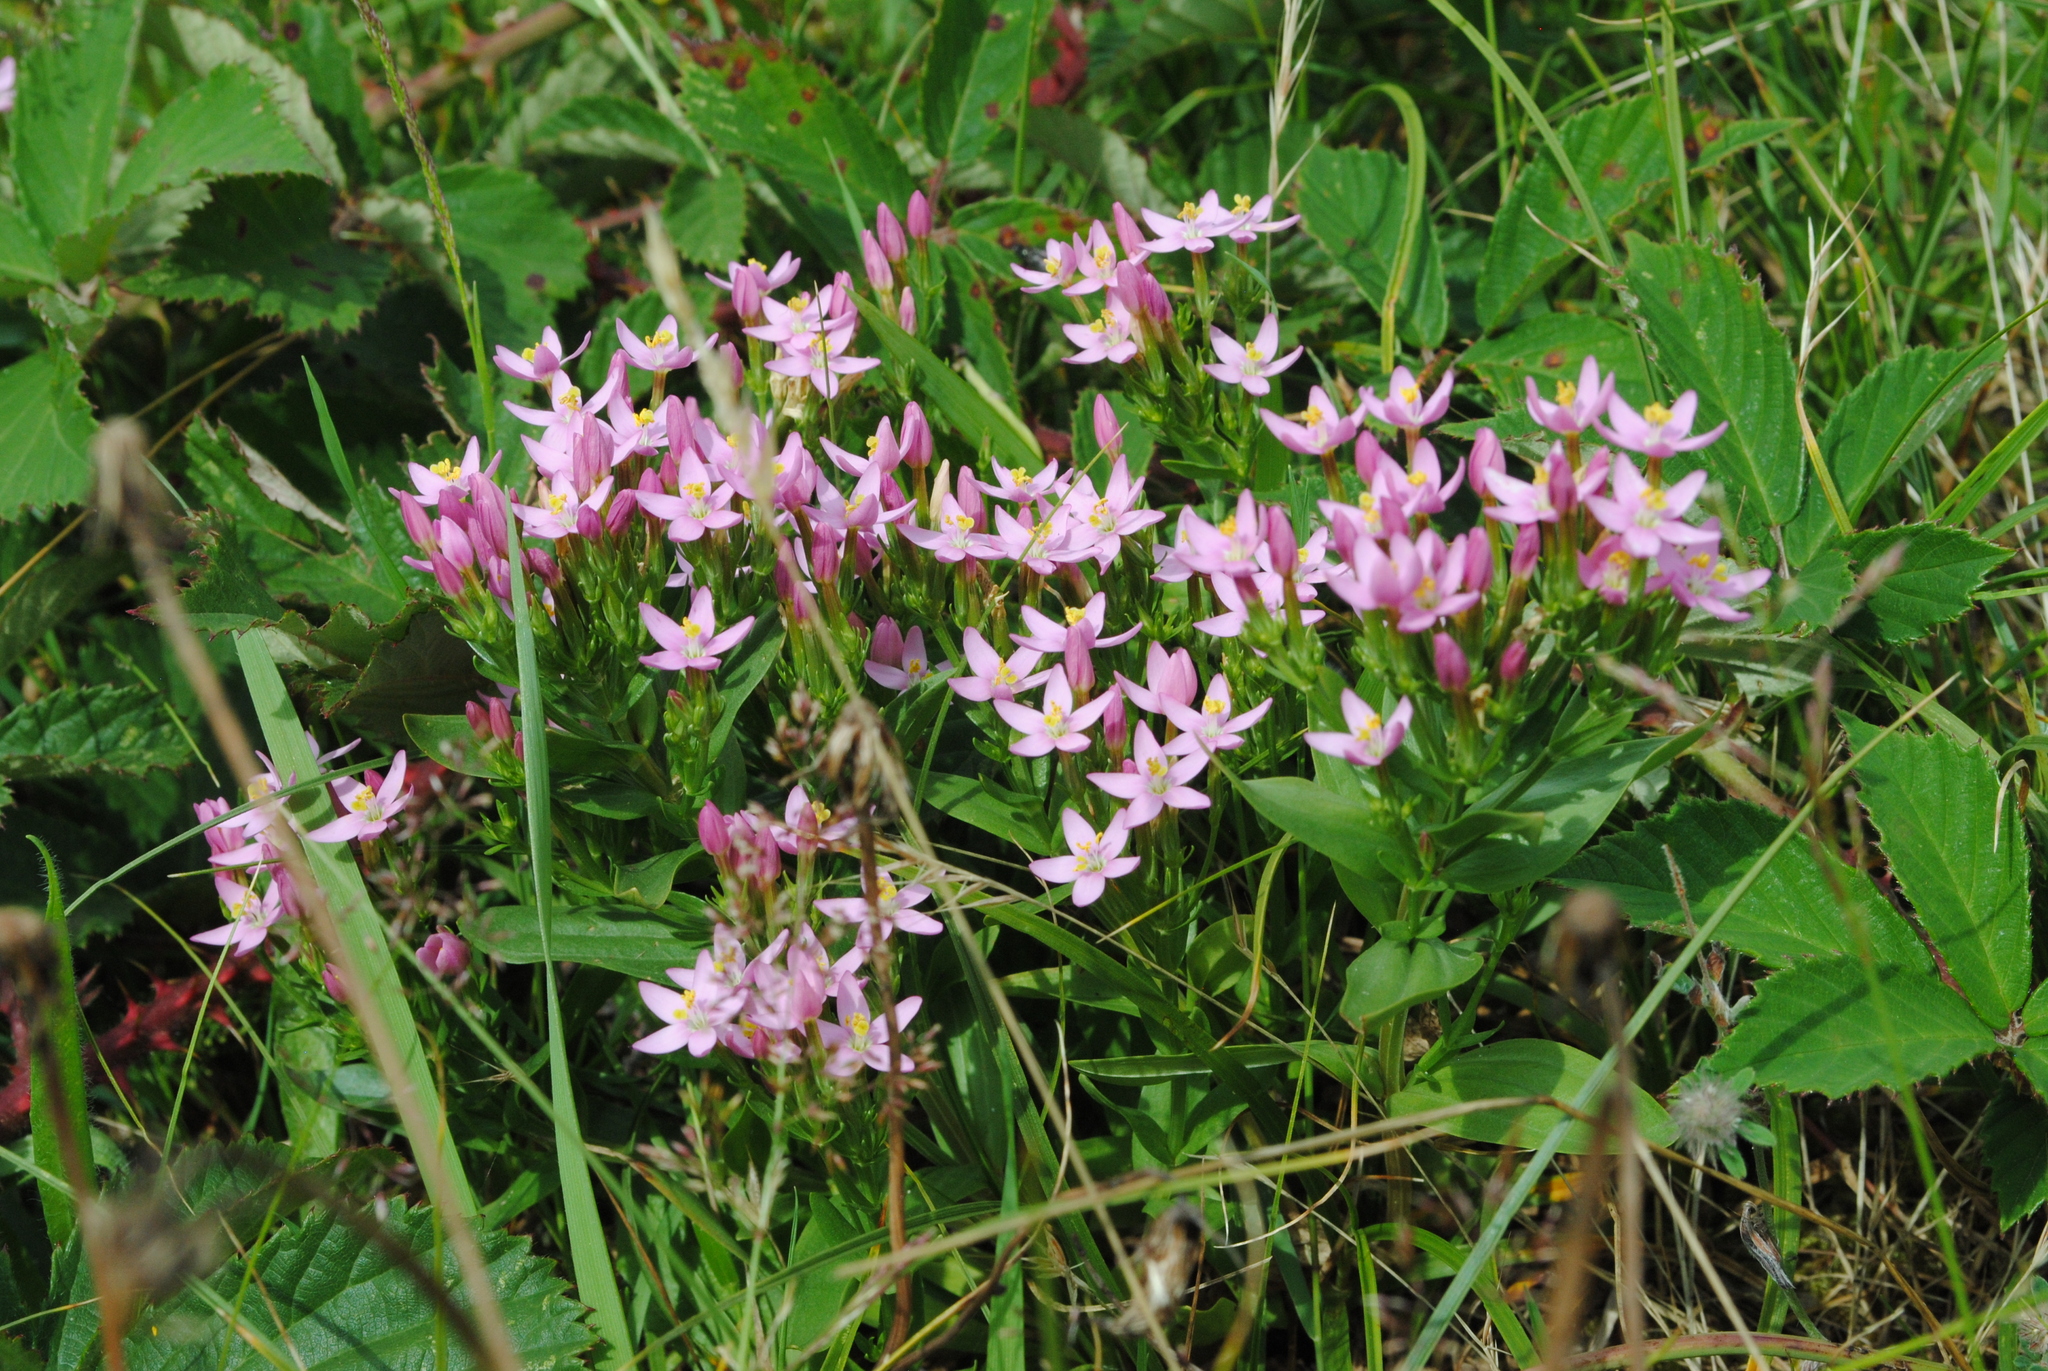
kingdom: Plantae
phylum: Tracheophyta
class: Magnoliopsida
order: Gentianales
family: Gentianaceae
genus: Centaurium
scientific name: Centaurium erythraea
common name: Common centaury
